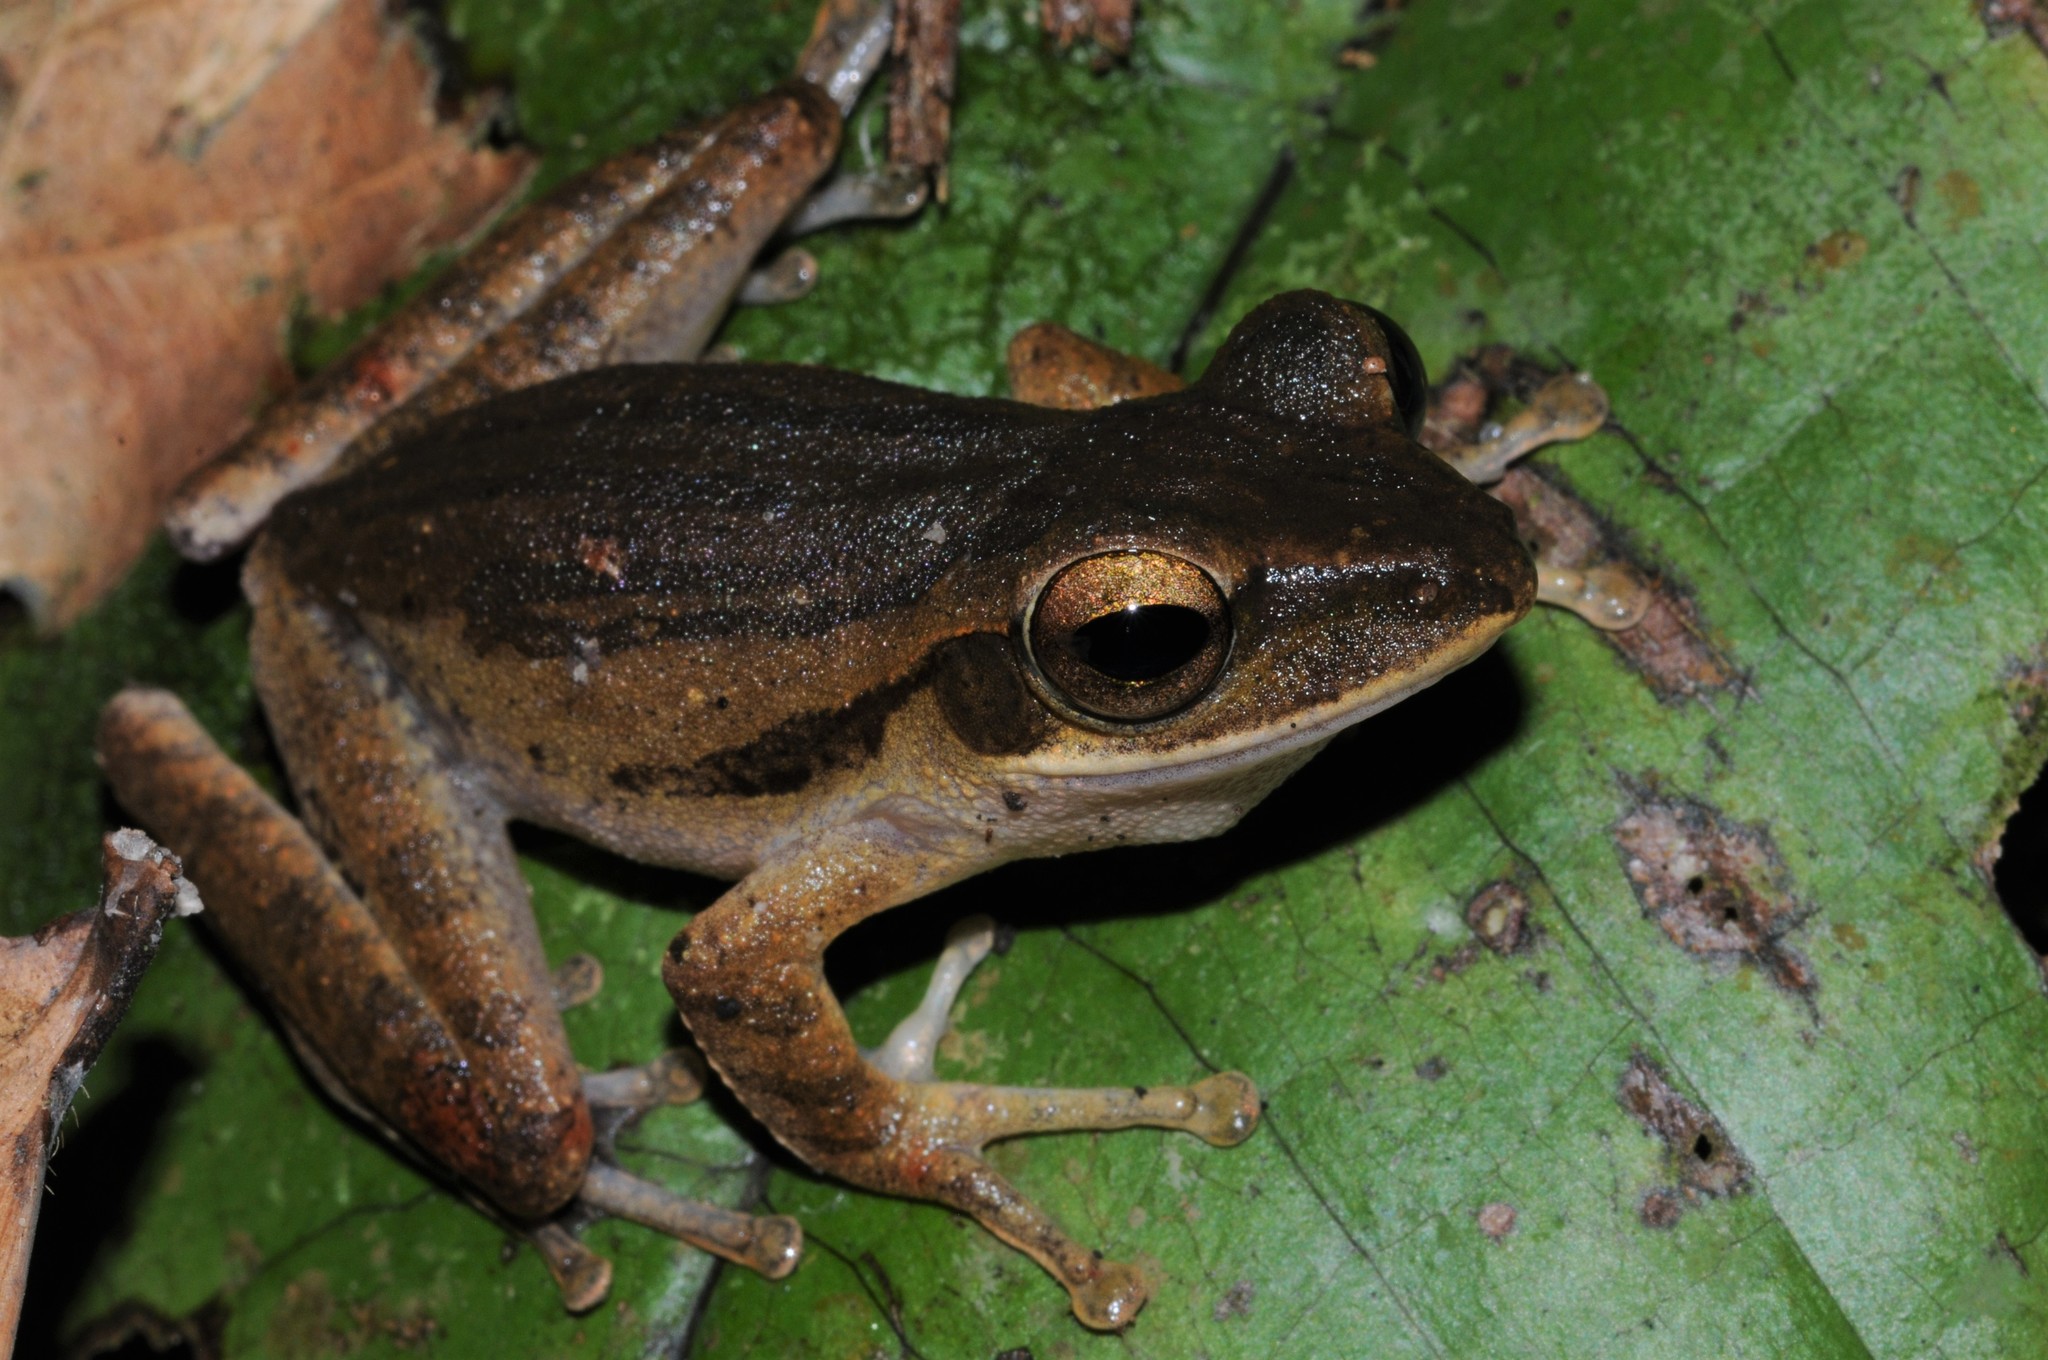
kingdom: Animalia
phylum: Chordata
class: Amphibia
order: Anura
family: Rhacophoridae
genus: Polypedates
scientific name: Polypedates leucomystax
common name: Common tree frog/four-lined tree frog
